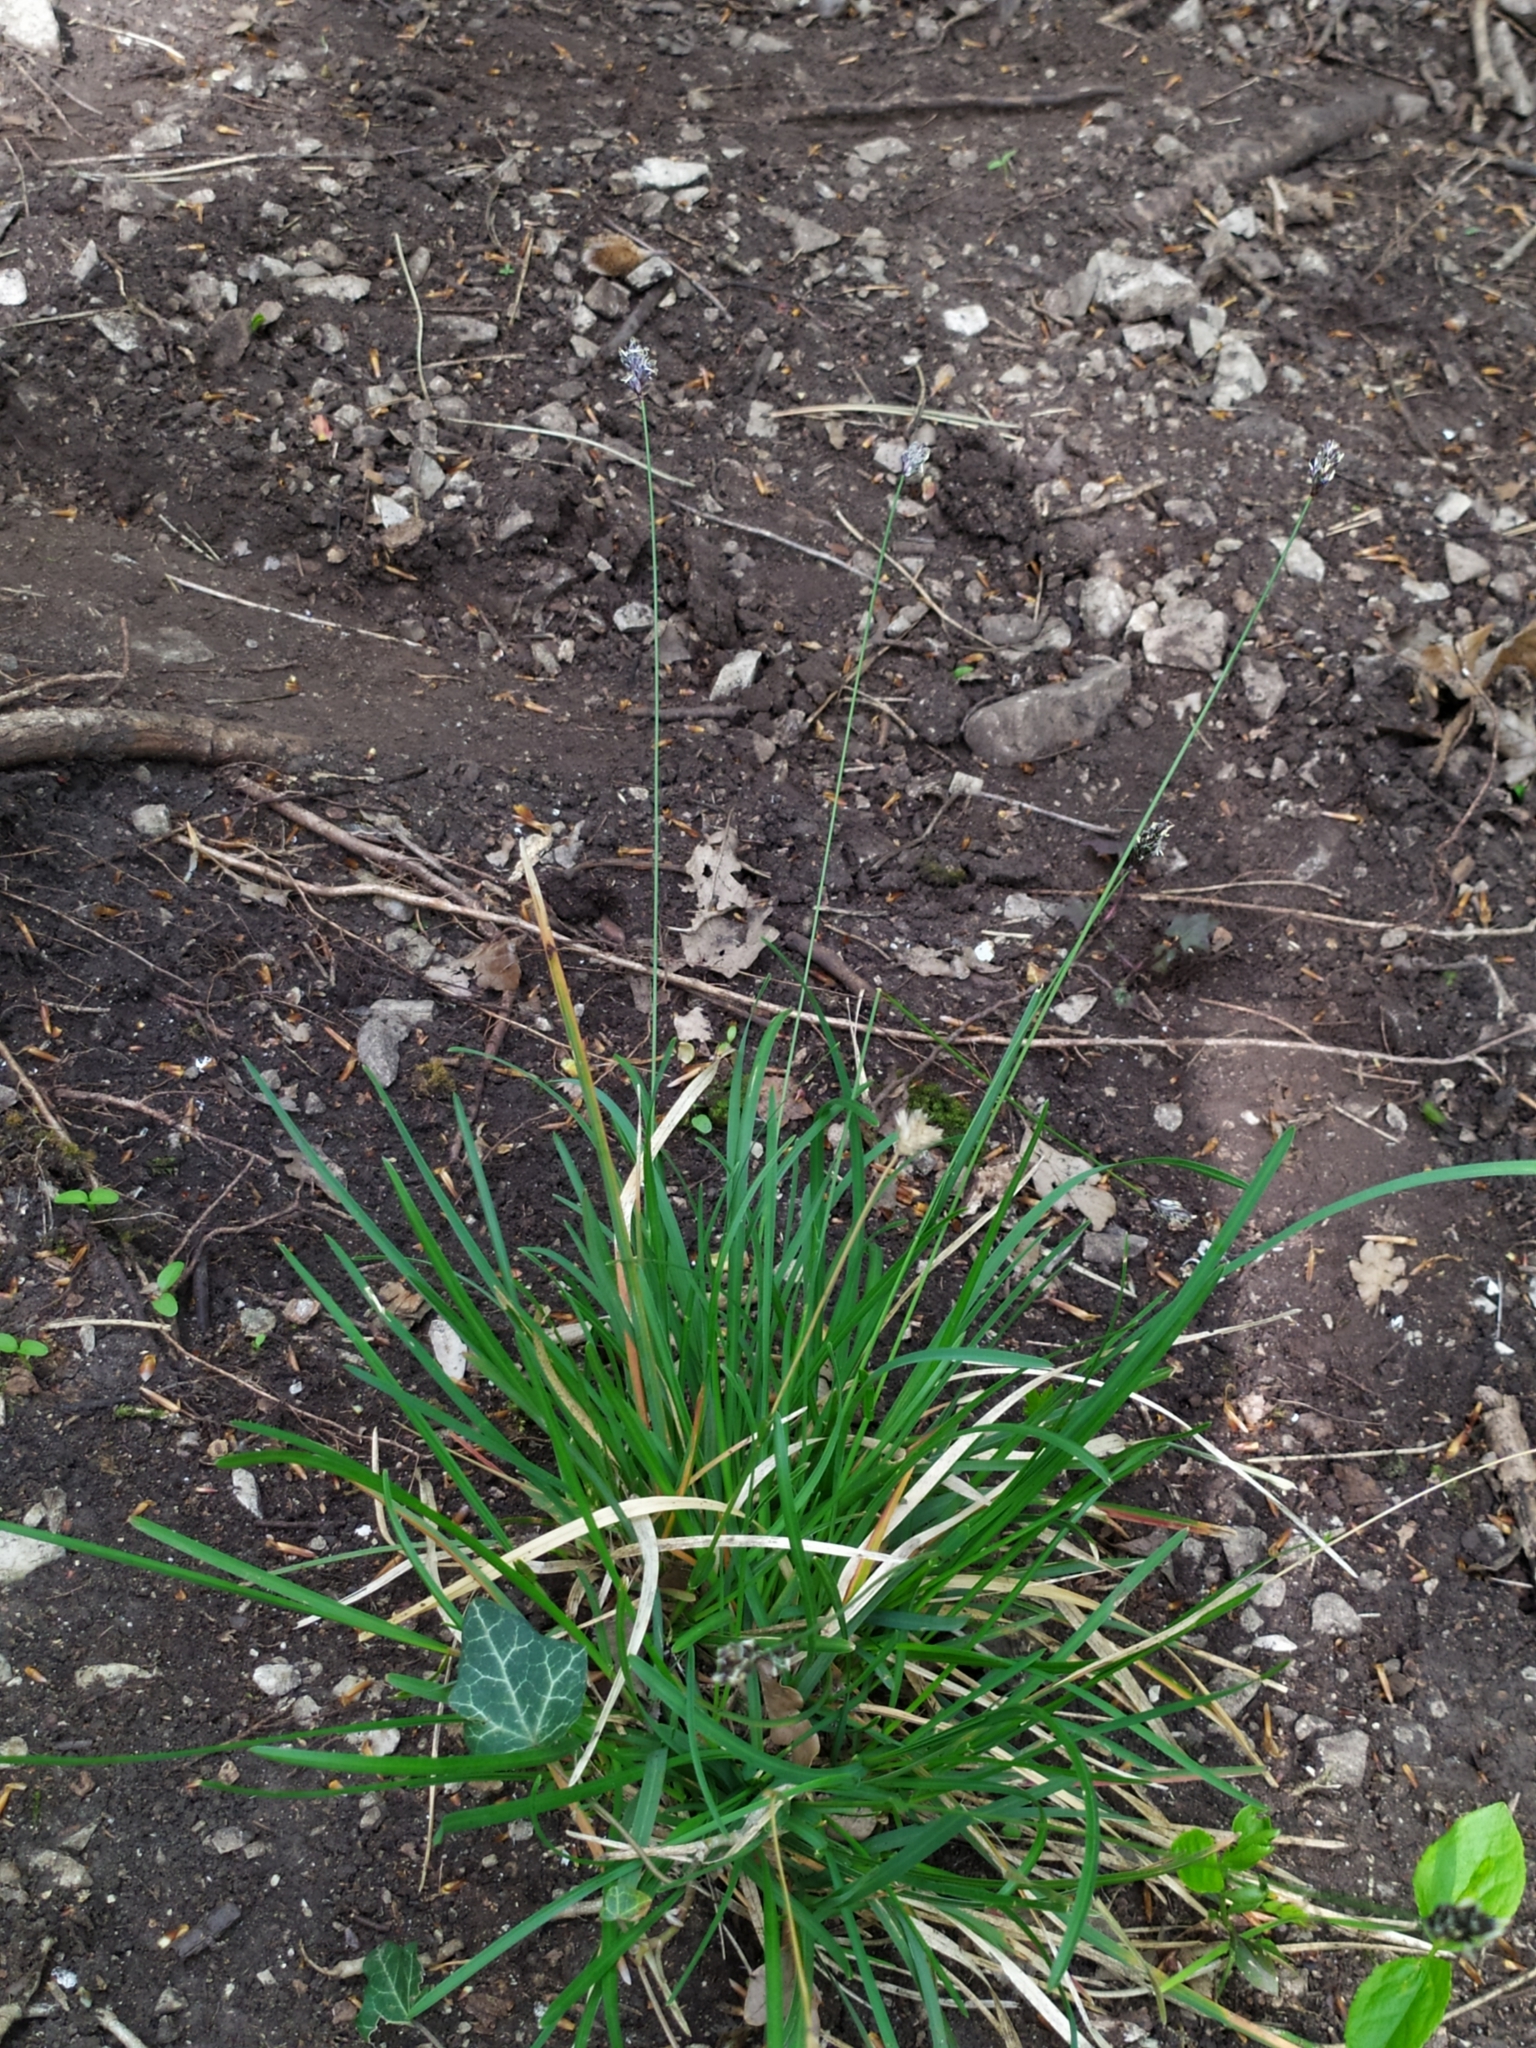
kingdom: Plantae
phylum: Tracheophyta
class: Liliopsida
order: Poales
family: Poaceae
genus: Sesleria
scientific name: Sesleria albicans
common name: Blue moor-grass
